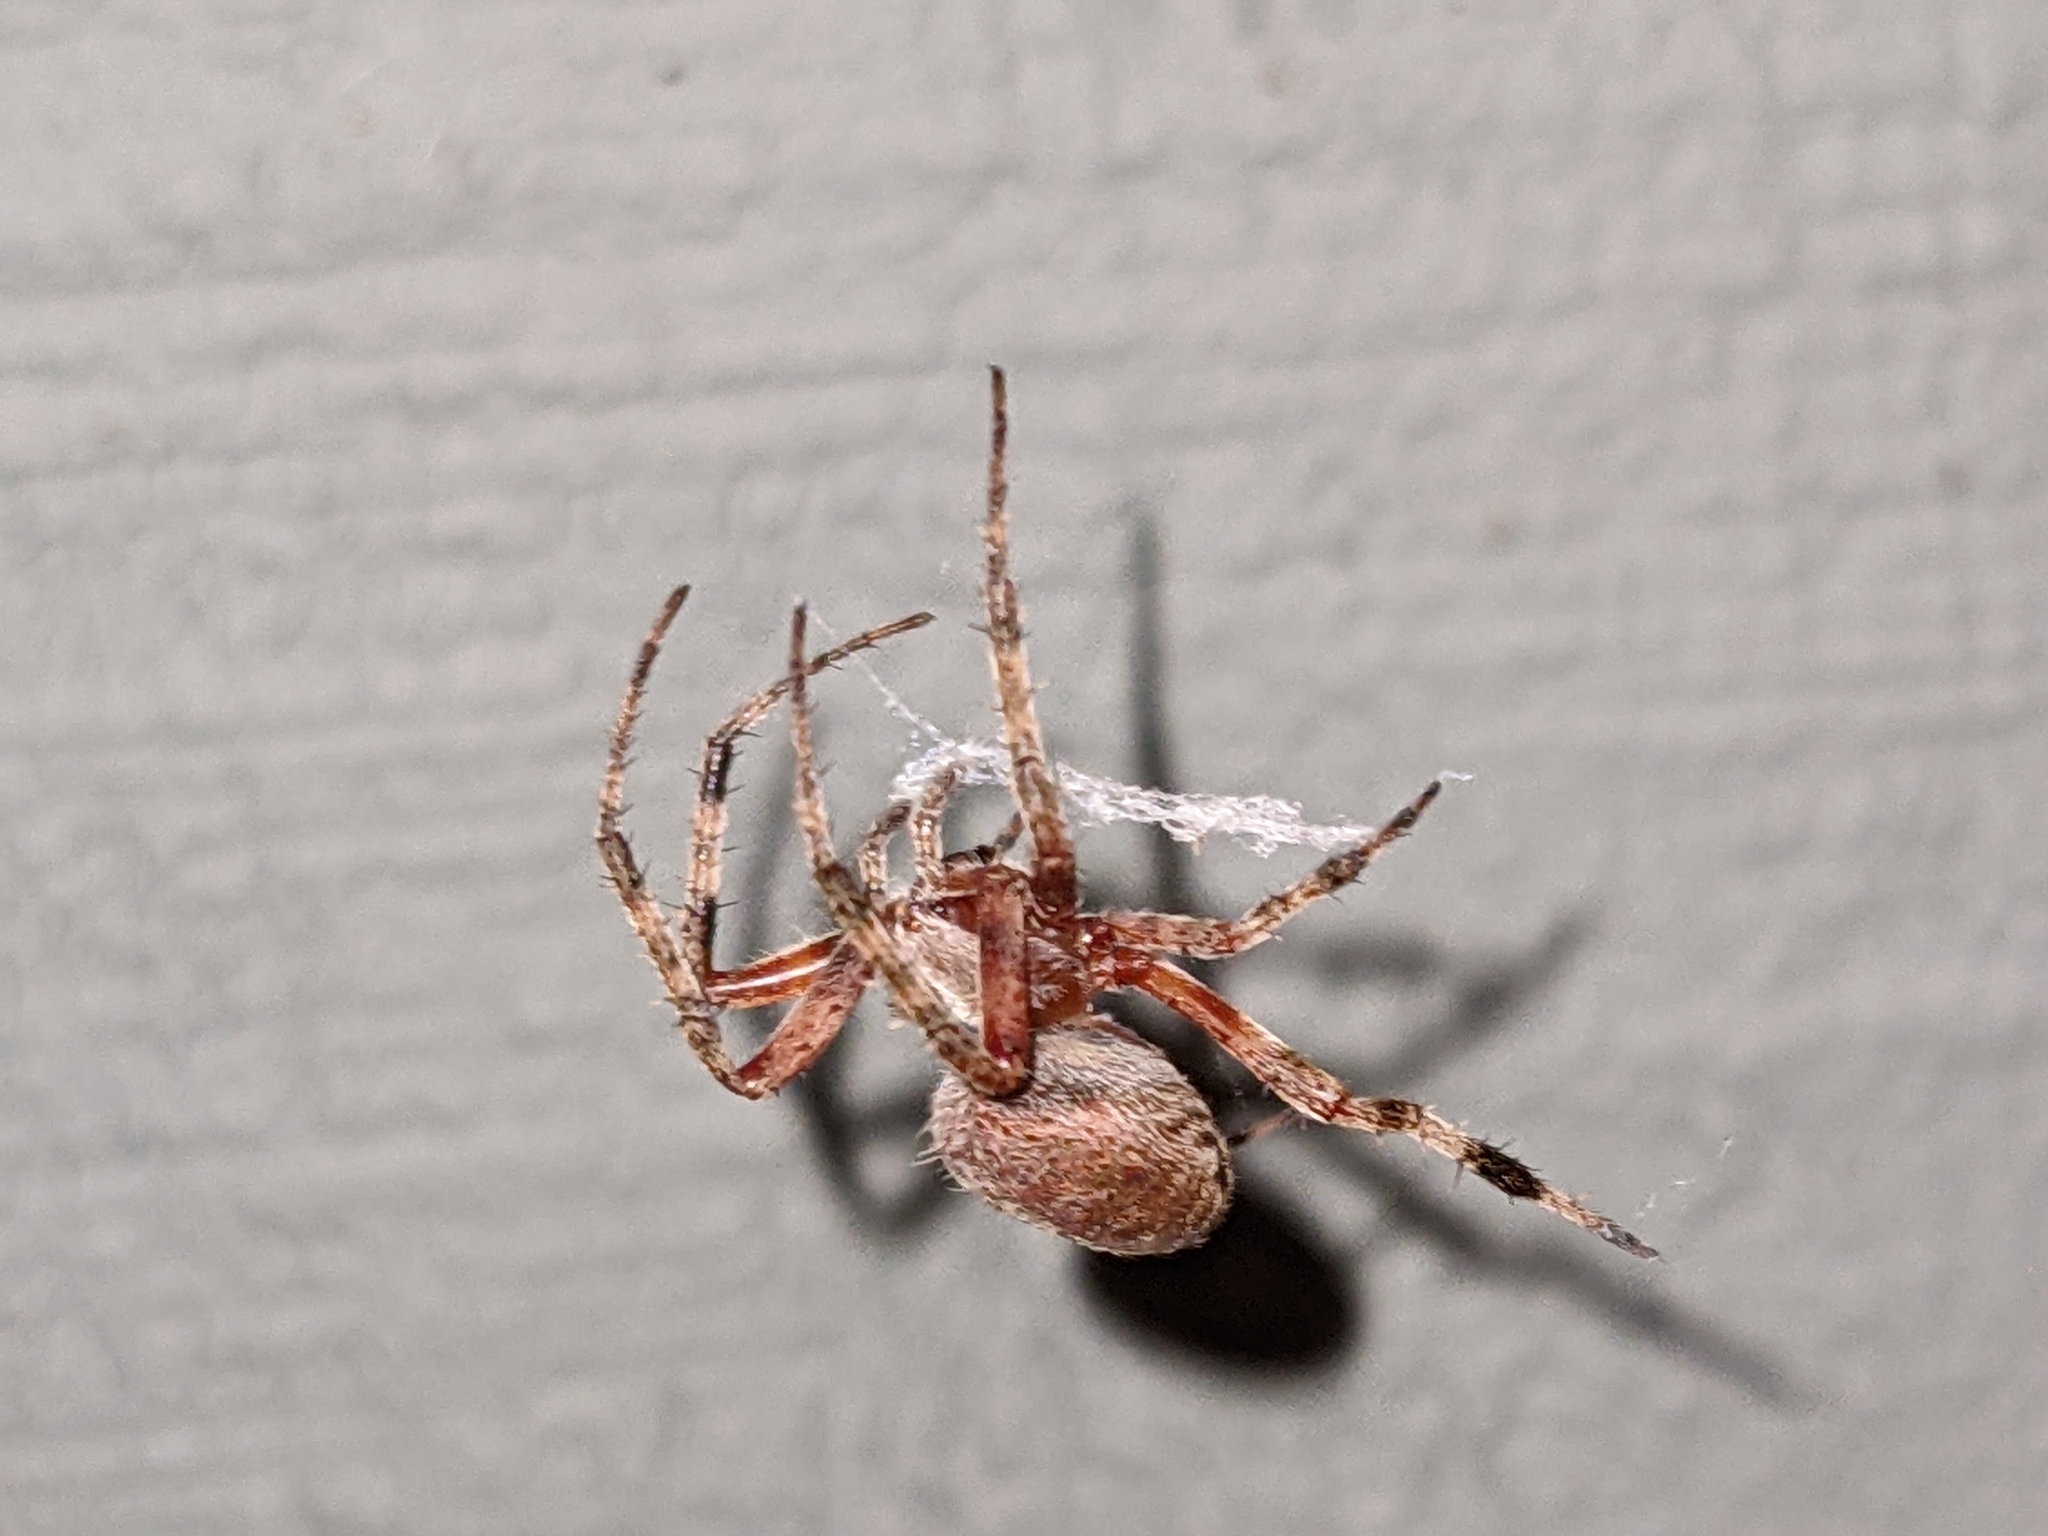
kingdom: Animalia
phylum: Arthropoda
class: Arachnida
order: Araneae
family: Araneidae
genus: Neoscona
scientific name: Neoscona crucifera
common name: Spotted orbweaver
